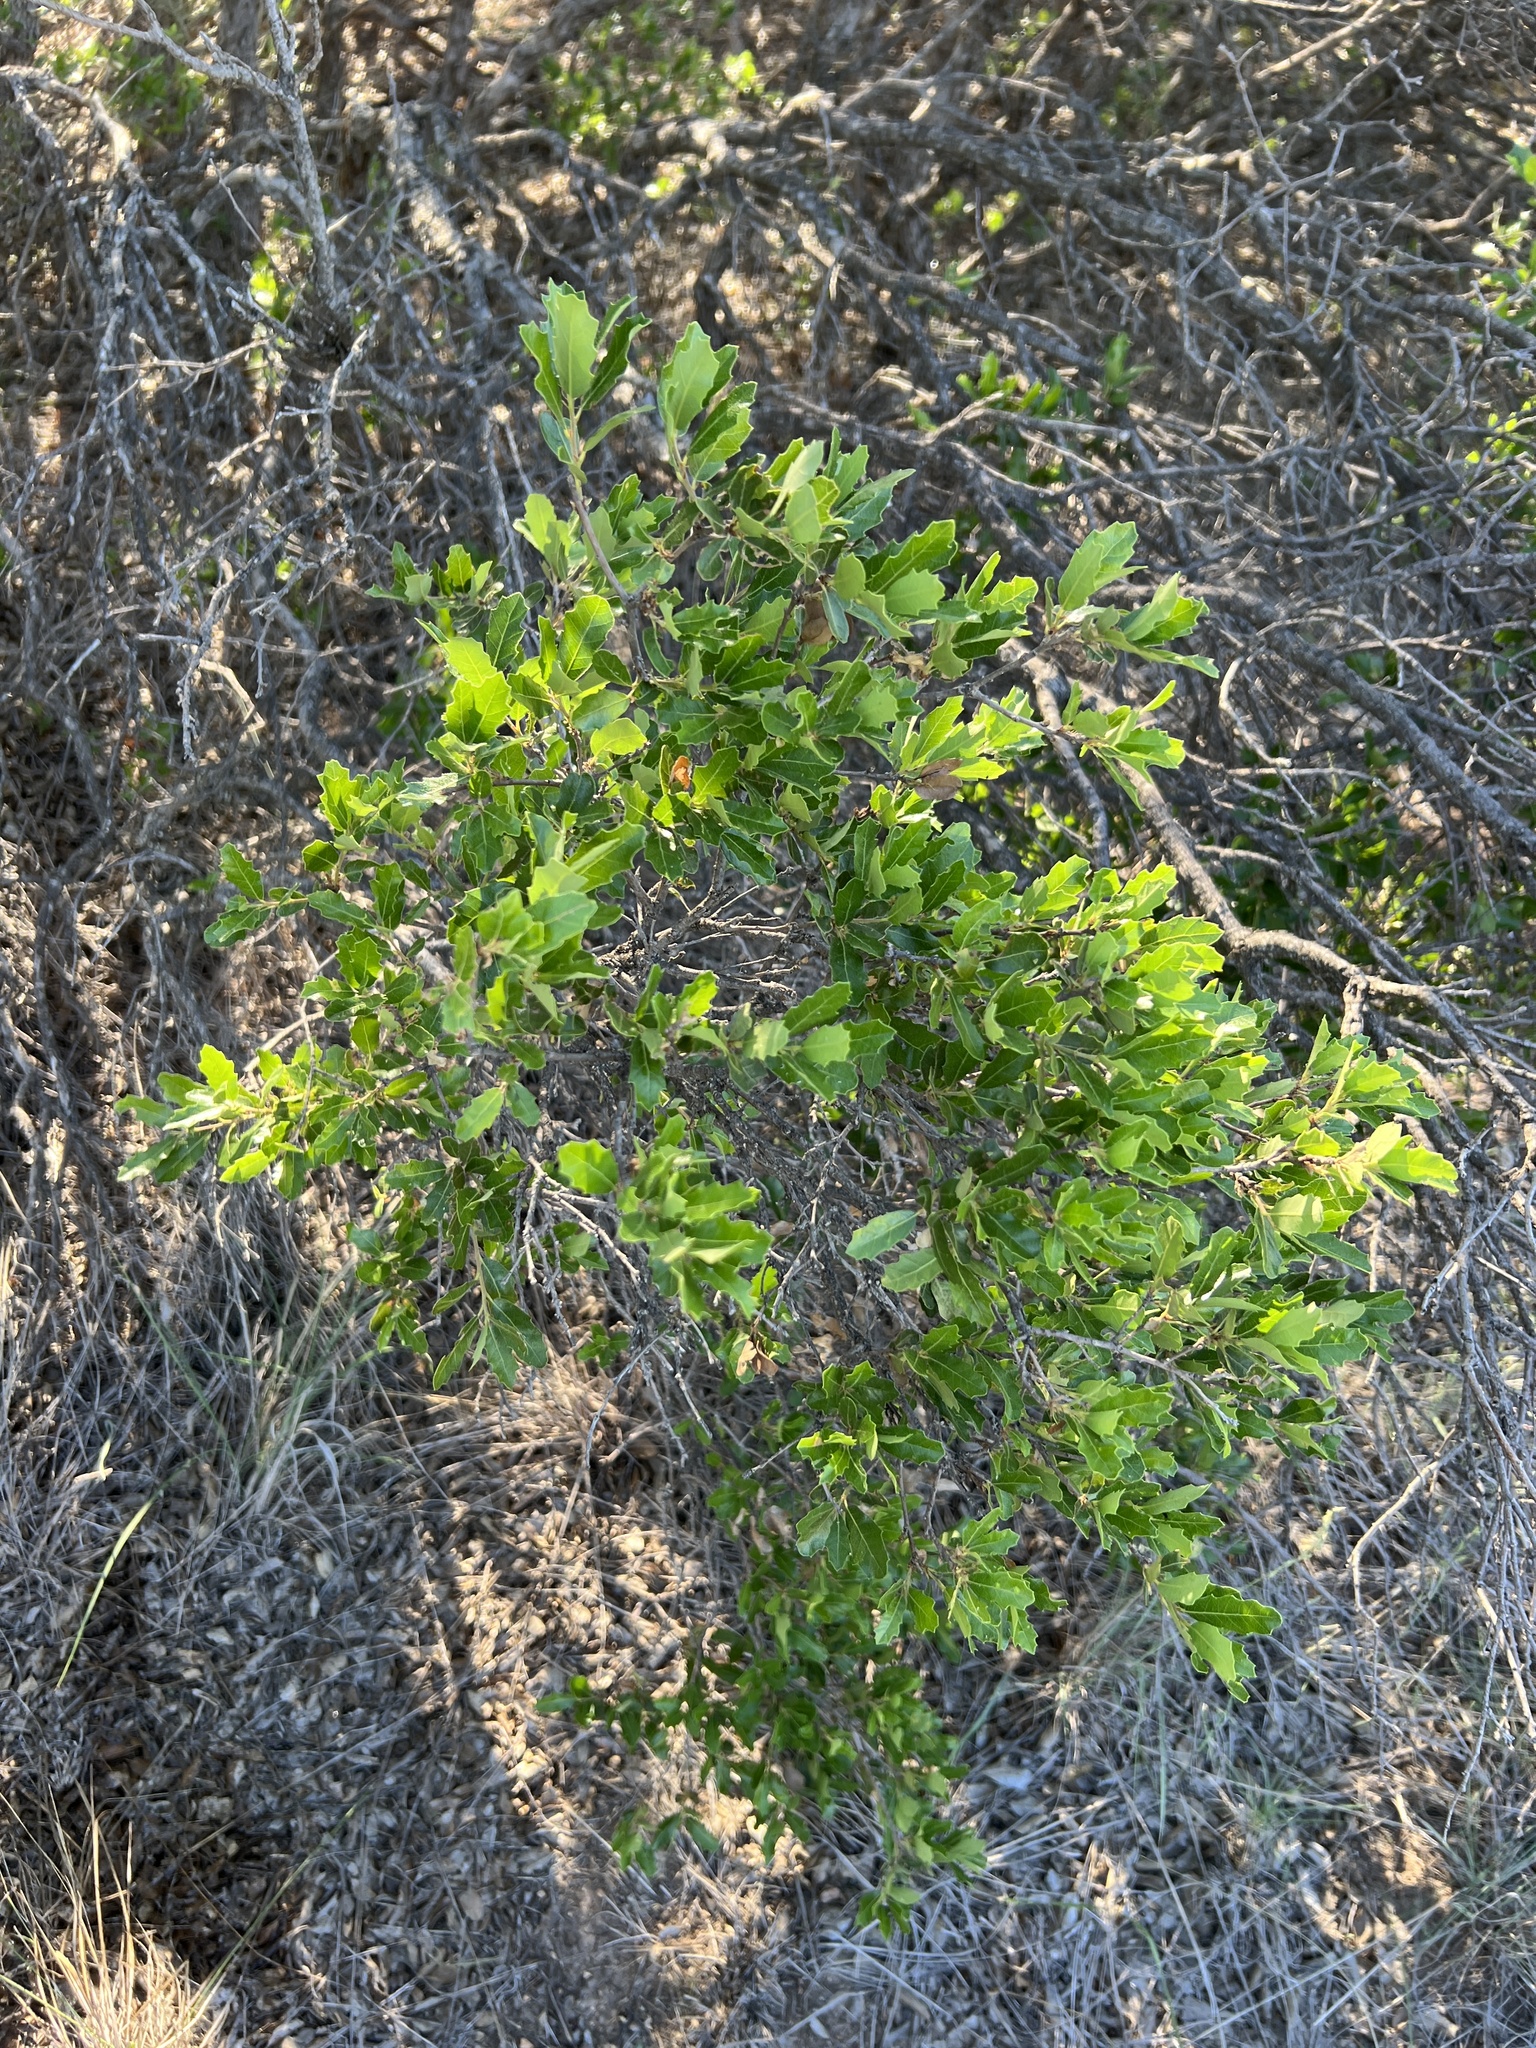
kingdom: Plantae
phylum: Tracheophyta
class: Magnoliopsida
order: Fagales
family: Fagaceae
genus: Quercus
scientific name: Quercus vaseyana
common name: Sandpaper oak
